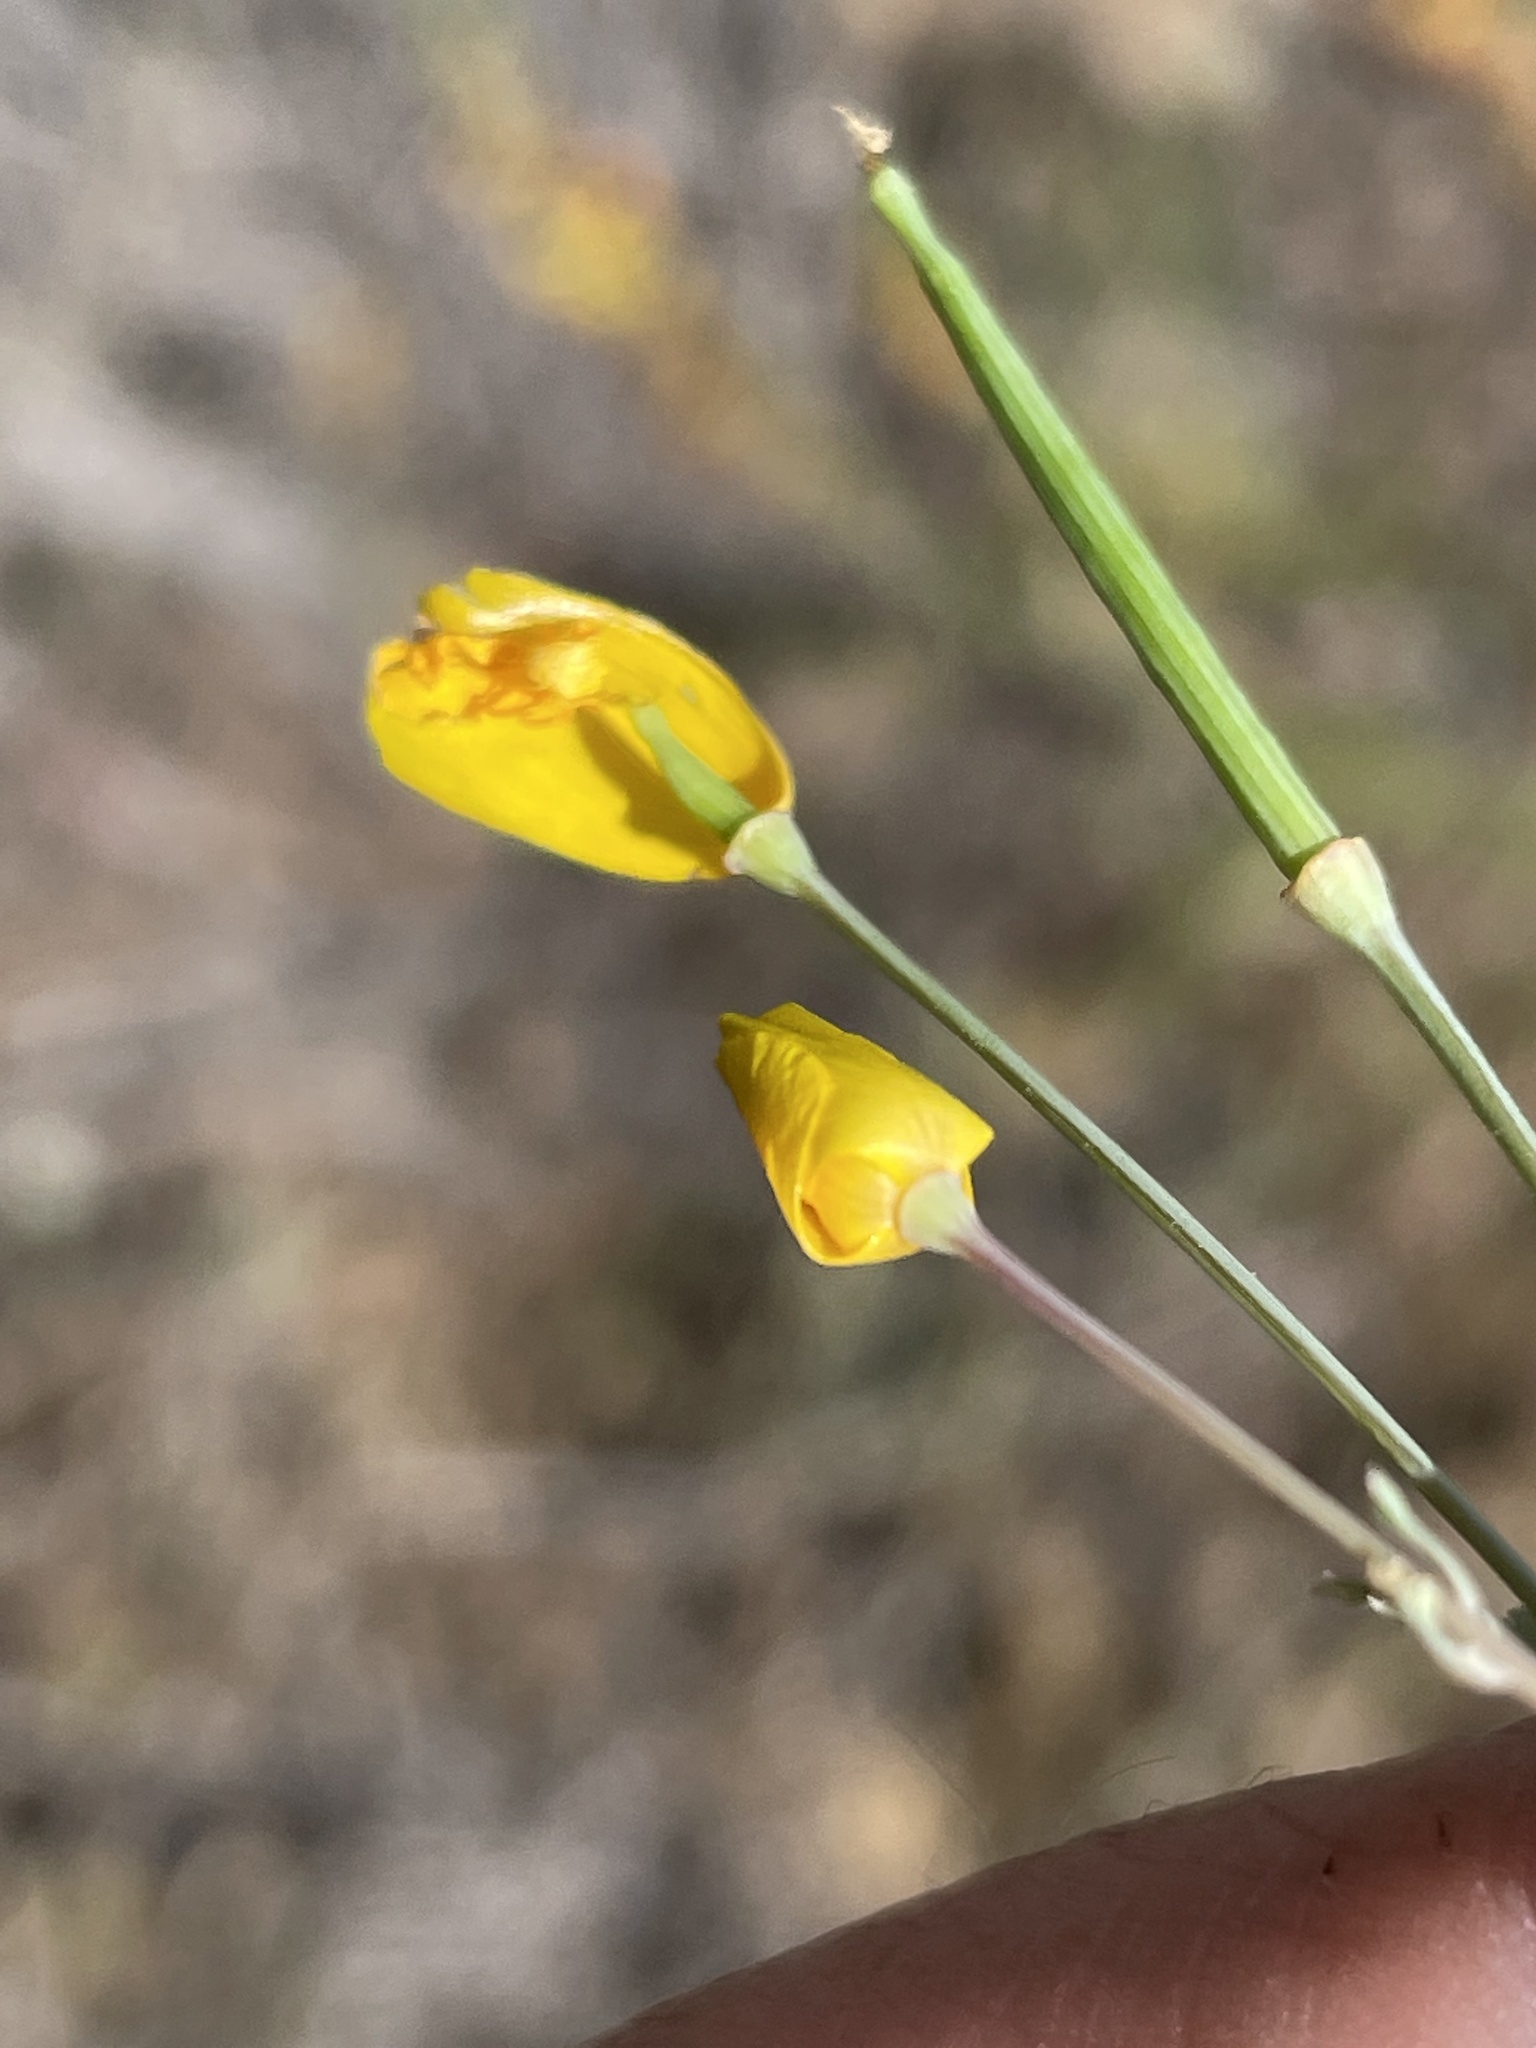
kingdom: Plantae
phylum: Tracheophyta
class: Magnoliopsida
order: Ranunculales
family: Papaveraceae
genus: Eschscholzia
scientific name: Eschscholzia californica
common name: California poppy
